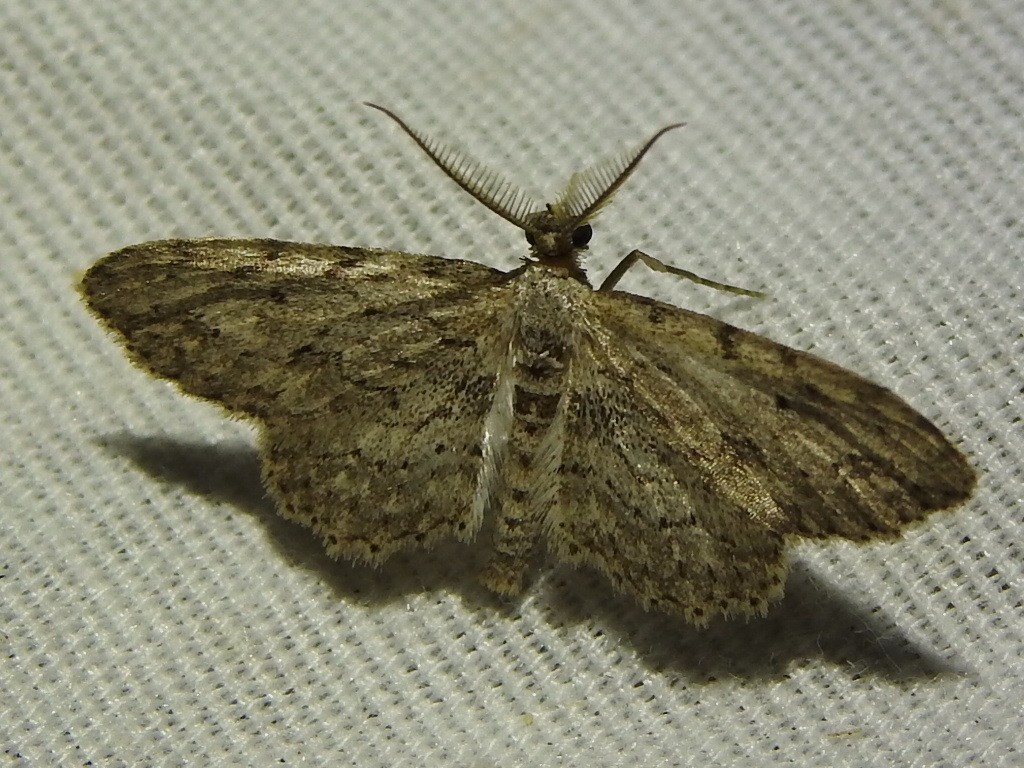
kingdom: Animalia
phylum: Arthropoda
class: Insecta
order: Lepidoptera
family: Geometridae
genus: Pimaphera
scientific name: Pimaphera sparsaria
